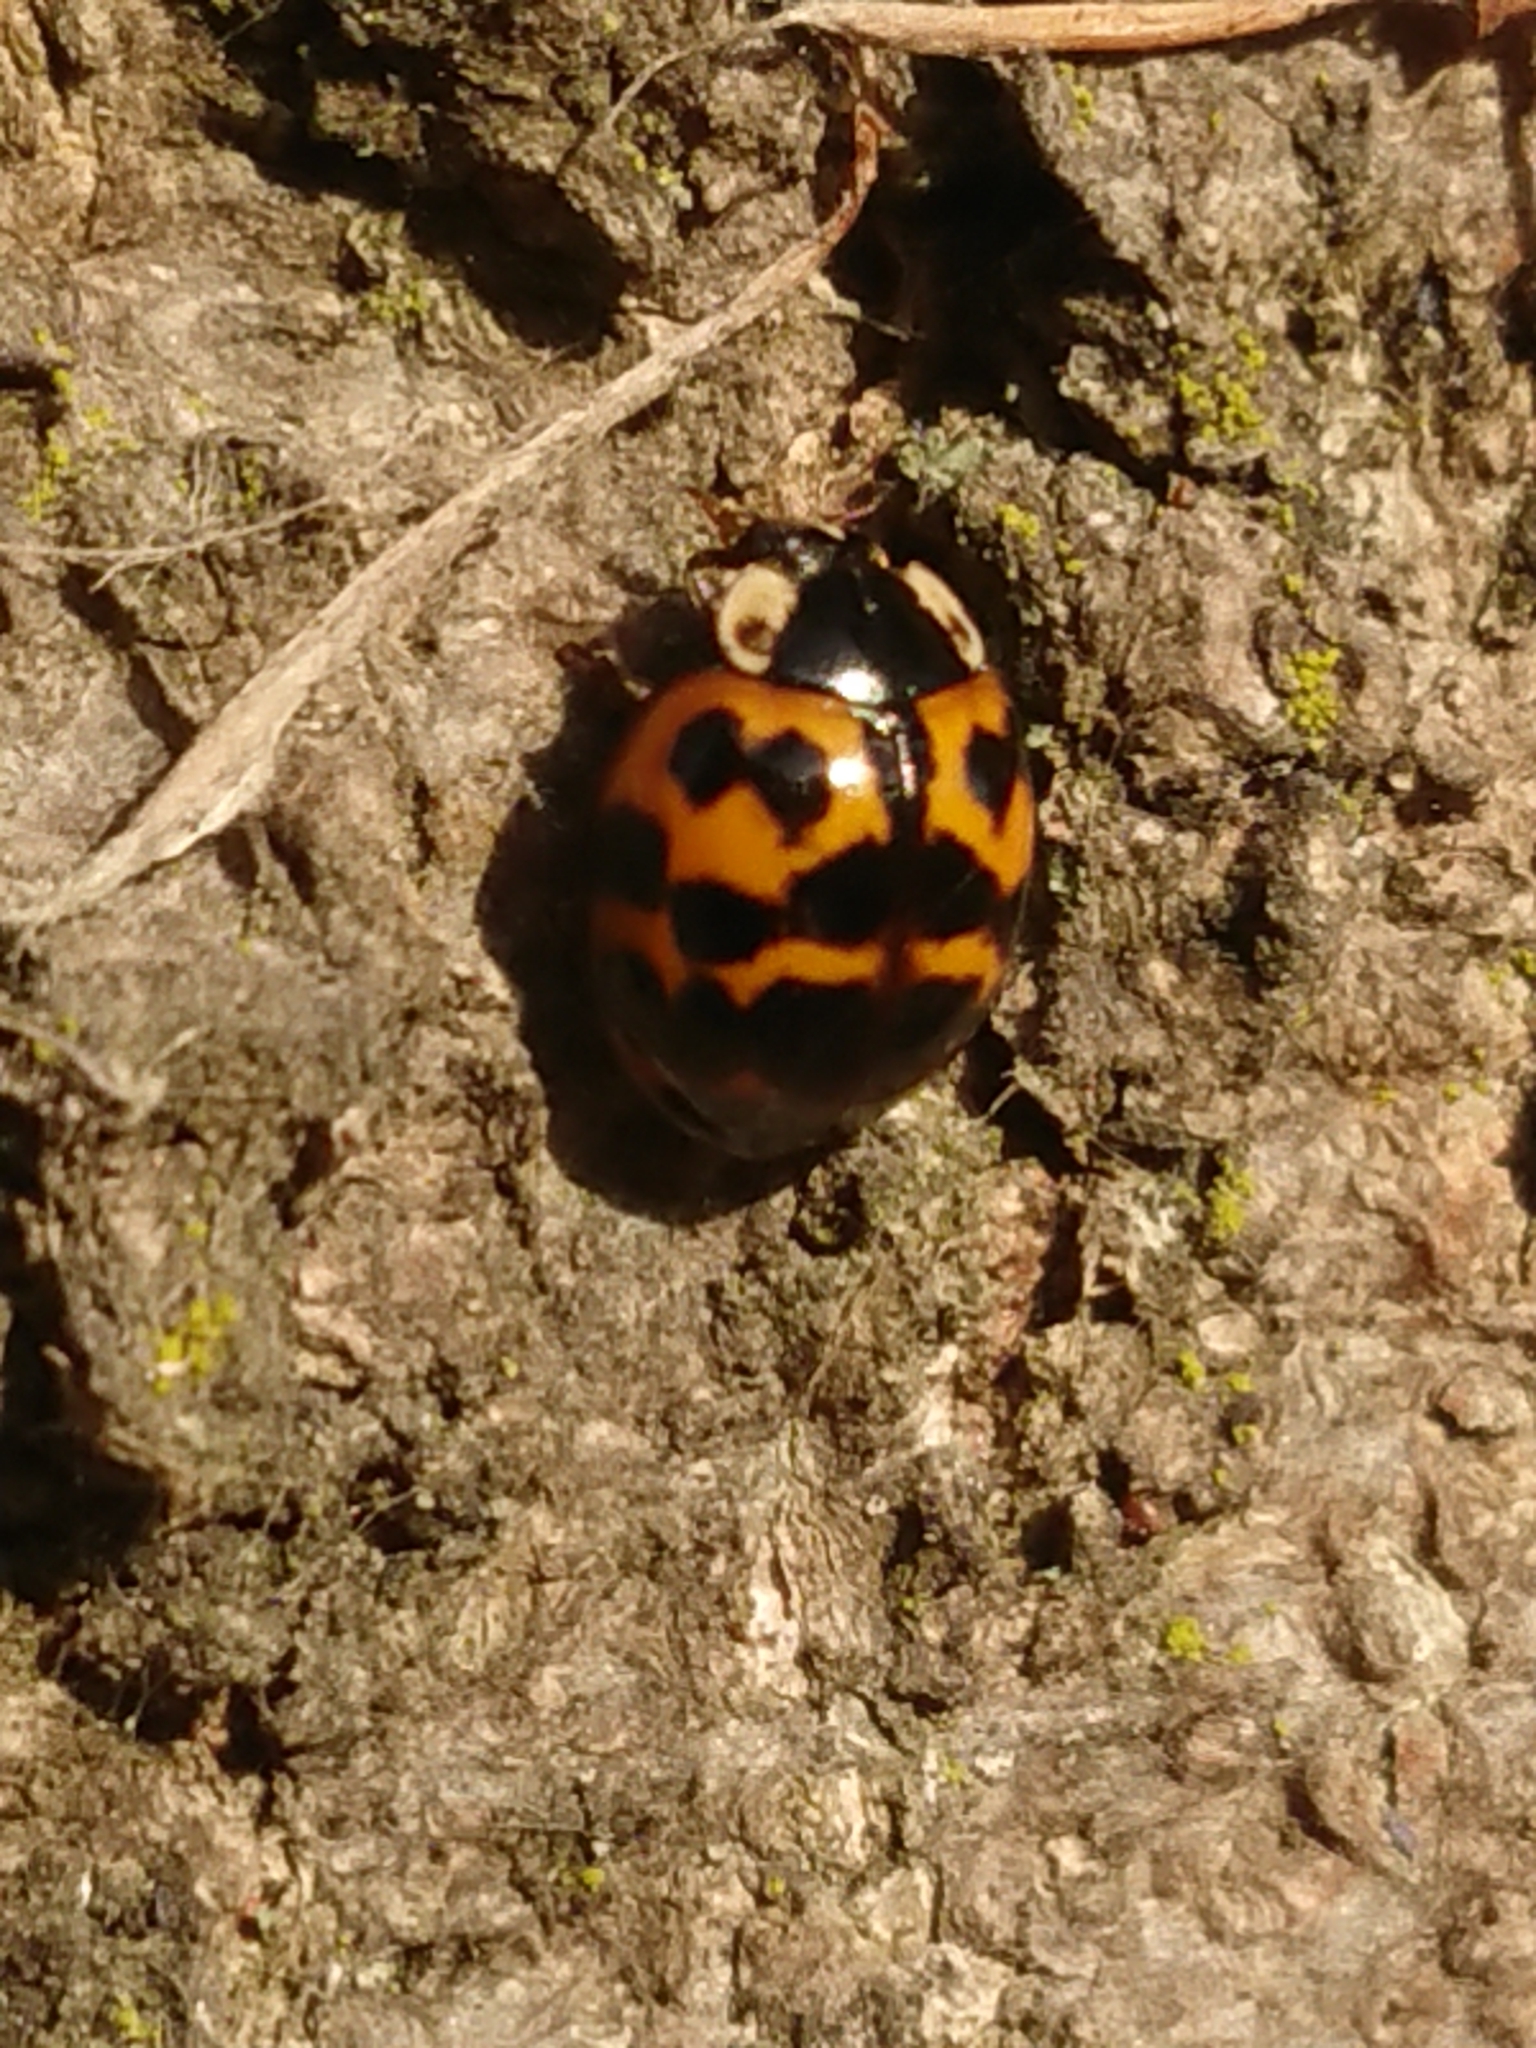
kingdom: Animalia
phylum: Arthropoda
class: Insecta
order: Coleoptera
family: Coccinellidae
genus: Harmonia
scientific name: Harmonia axyridis
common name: Harlequin ladybird
